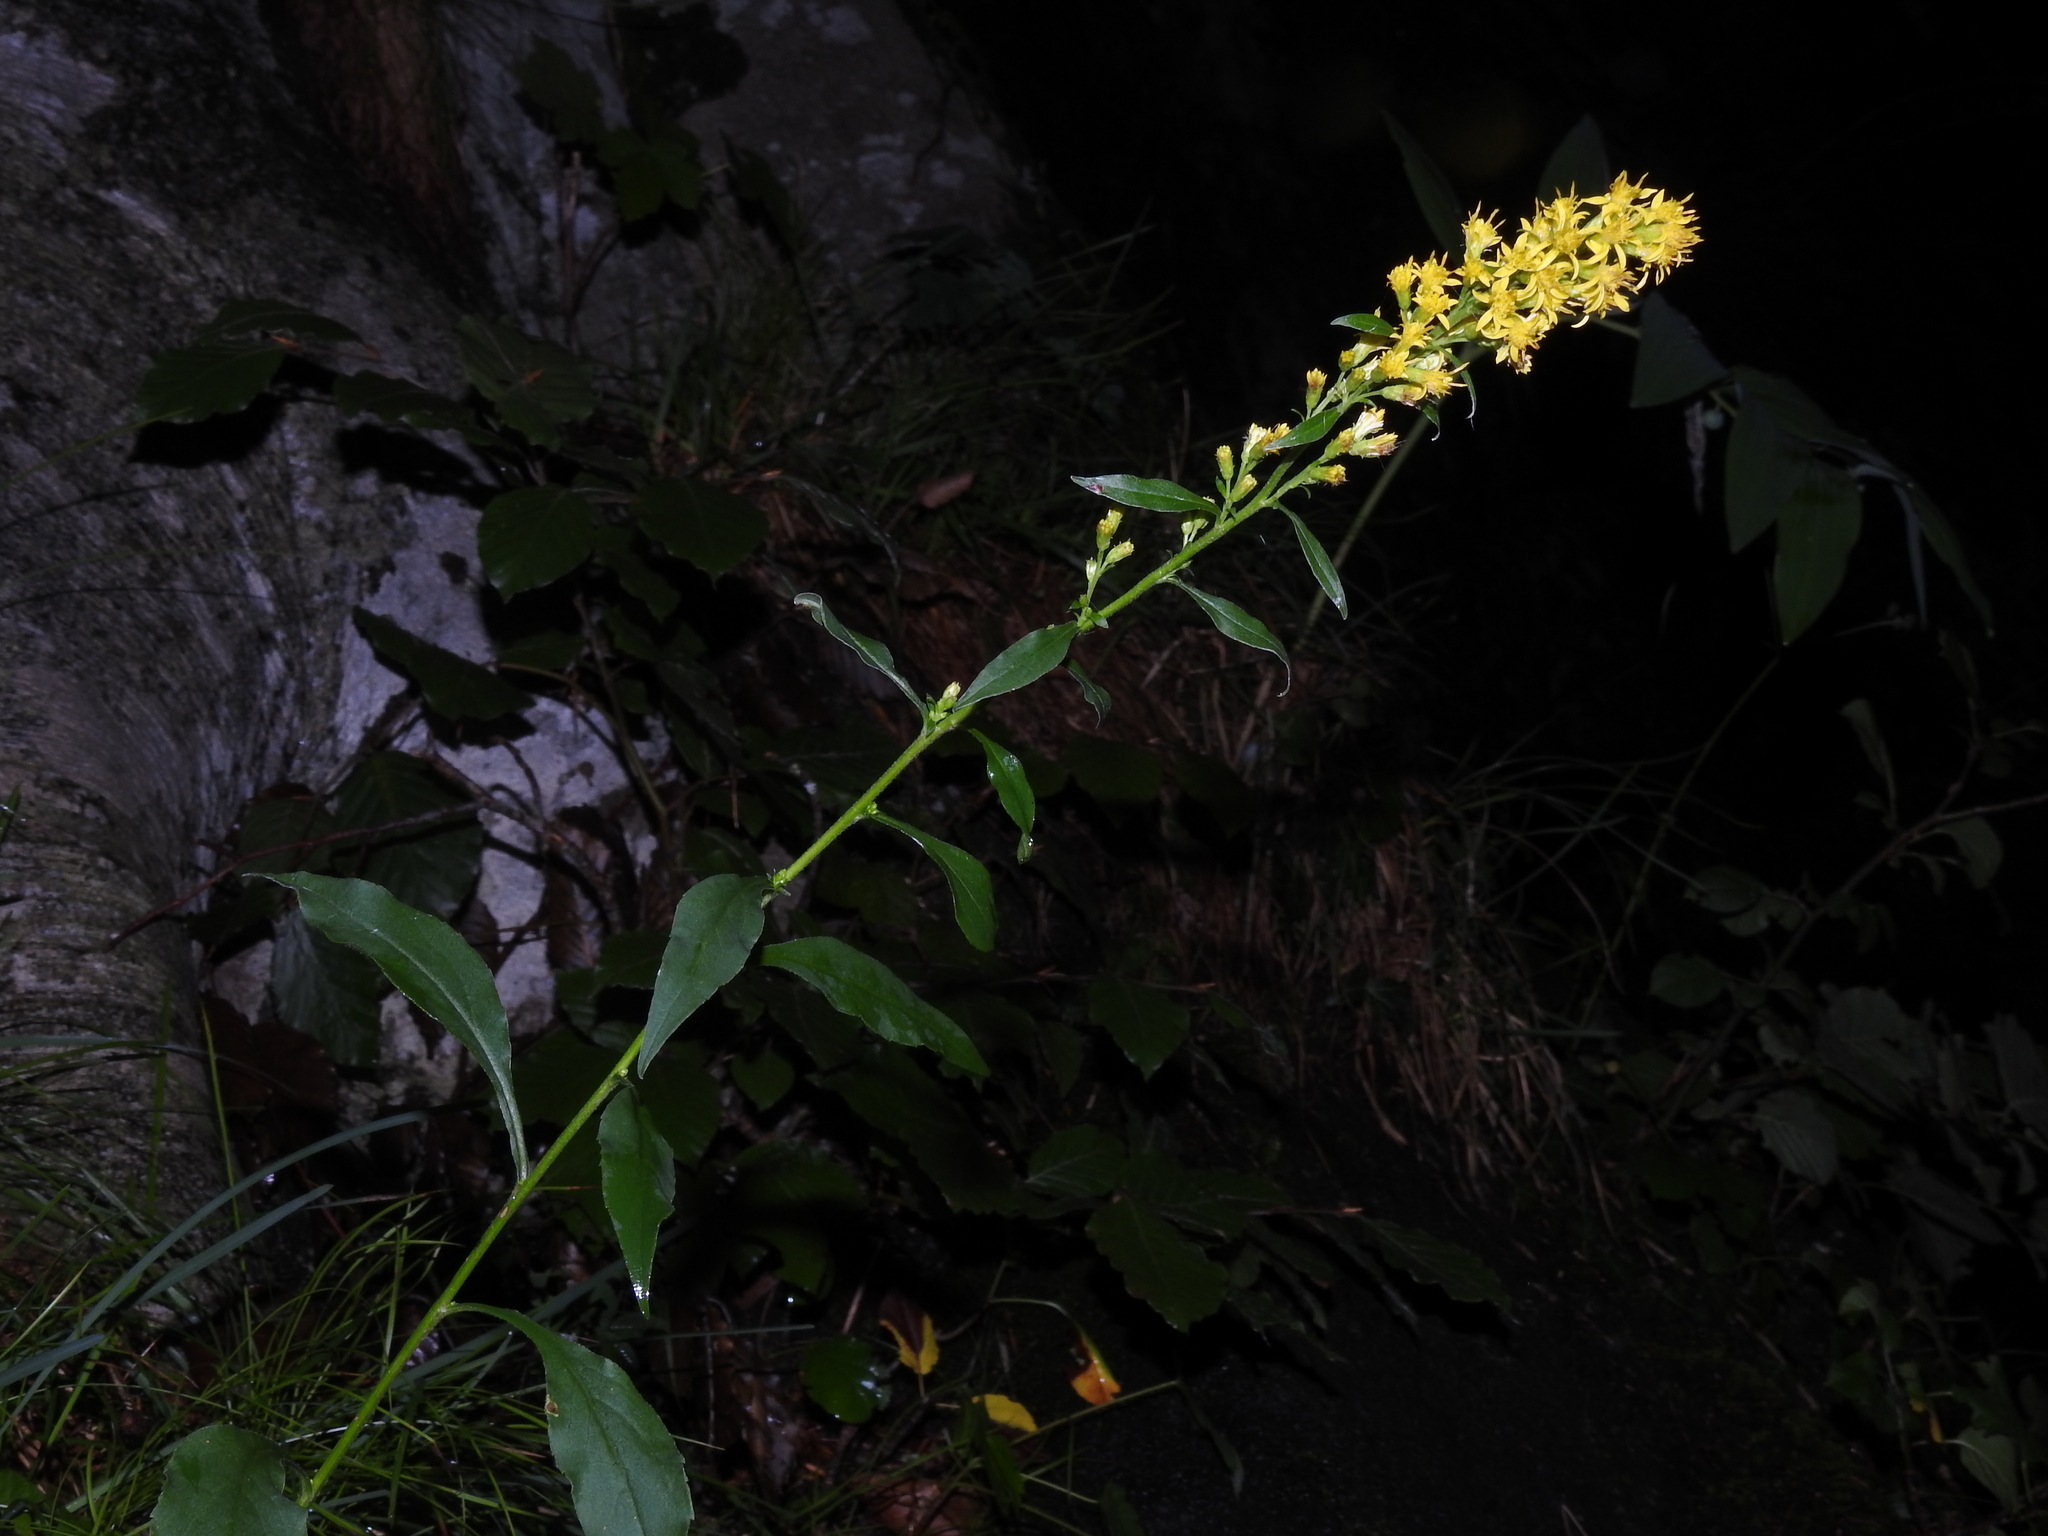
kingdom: Plantae
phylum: Tracheophyta
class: Magnoliopsida
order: Asterales
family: Asteraceae
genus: Solidago
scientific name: Solidago virgaurea
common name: Goldenrod
